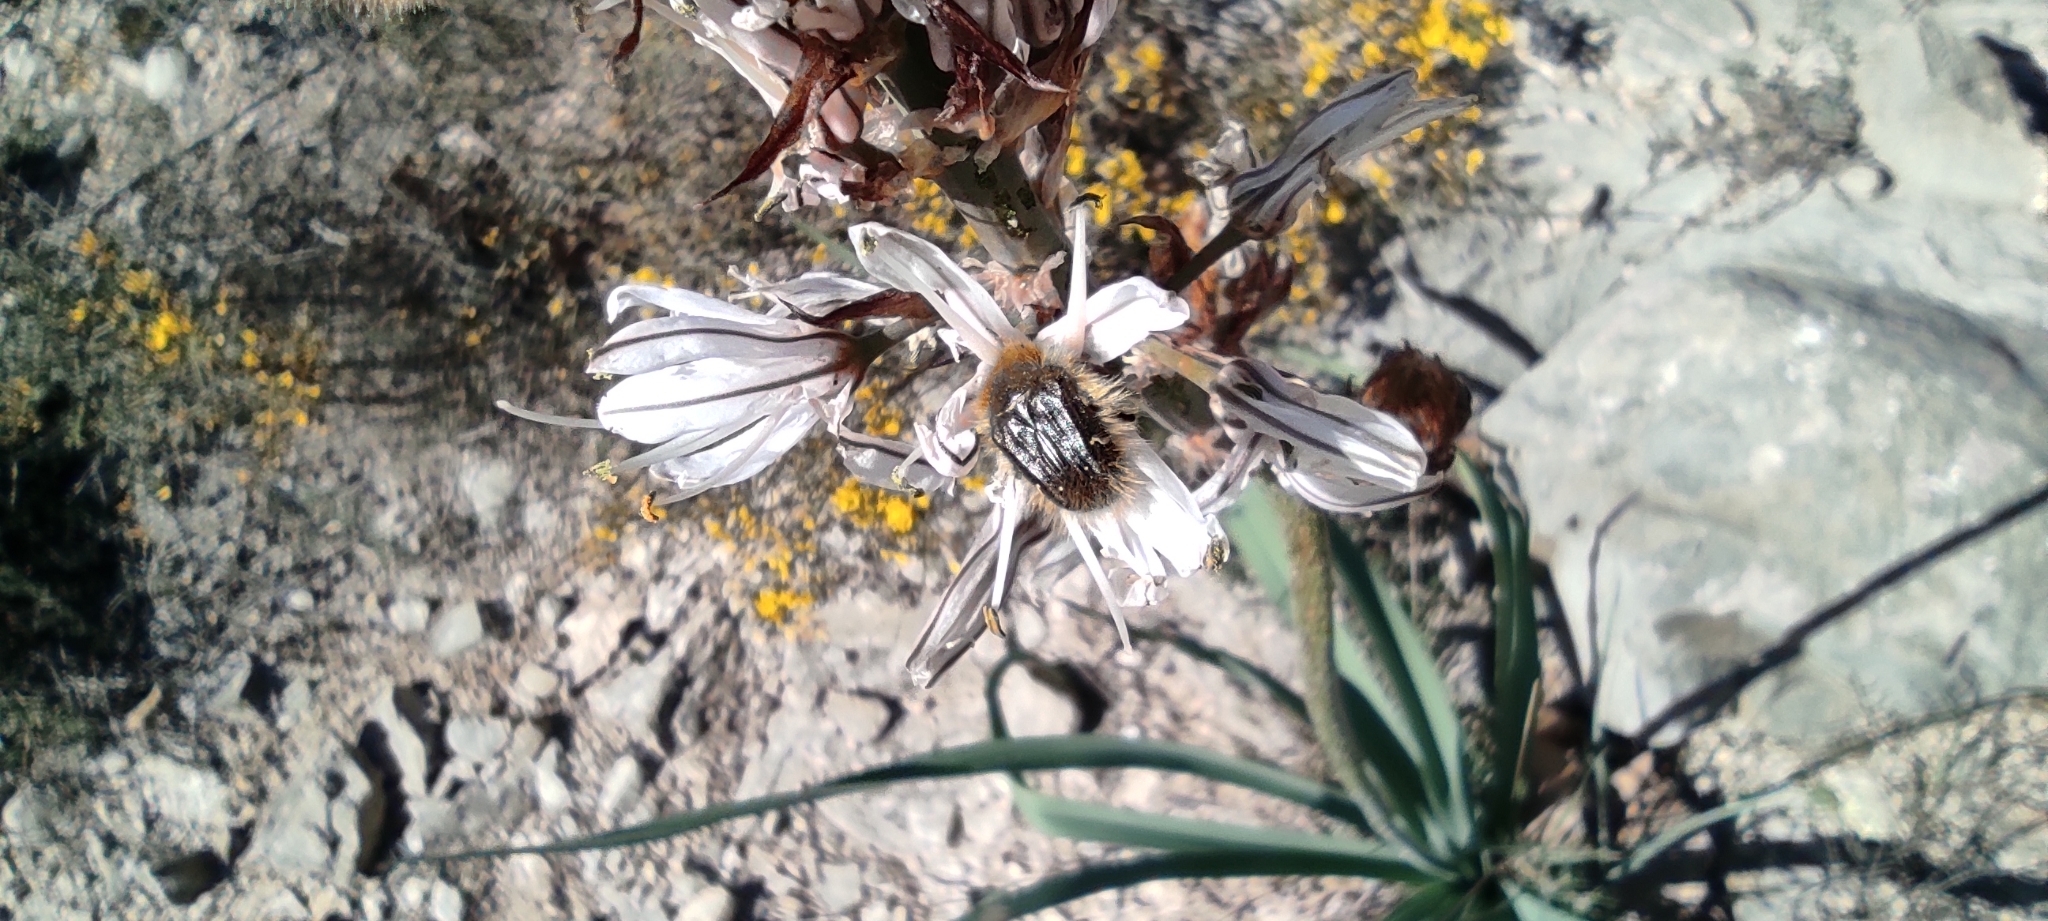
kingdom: Animalia
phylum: Arthropoda
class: Insecta
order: Coleoptera
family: Scarabaeidae
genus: Tropinota
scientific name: Tropinota squalida
